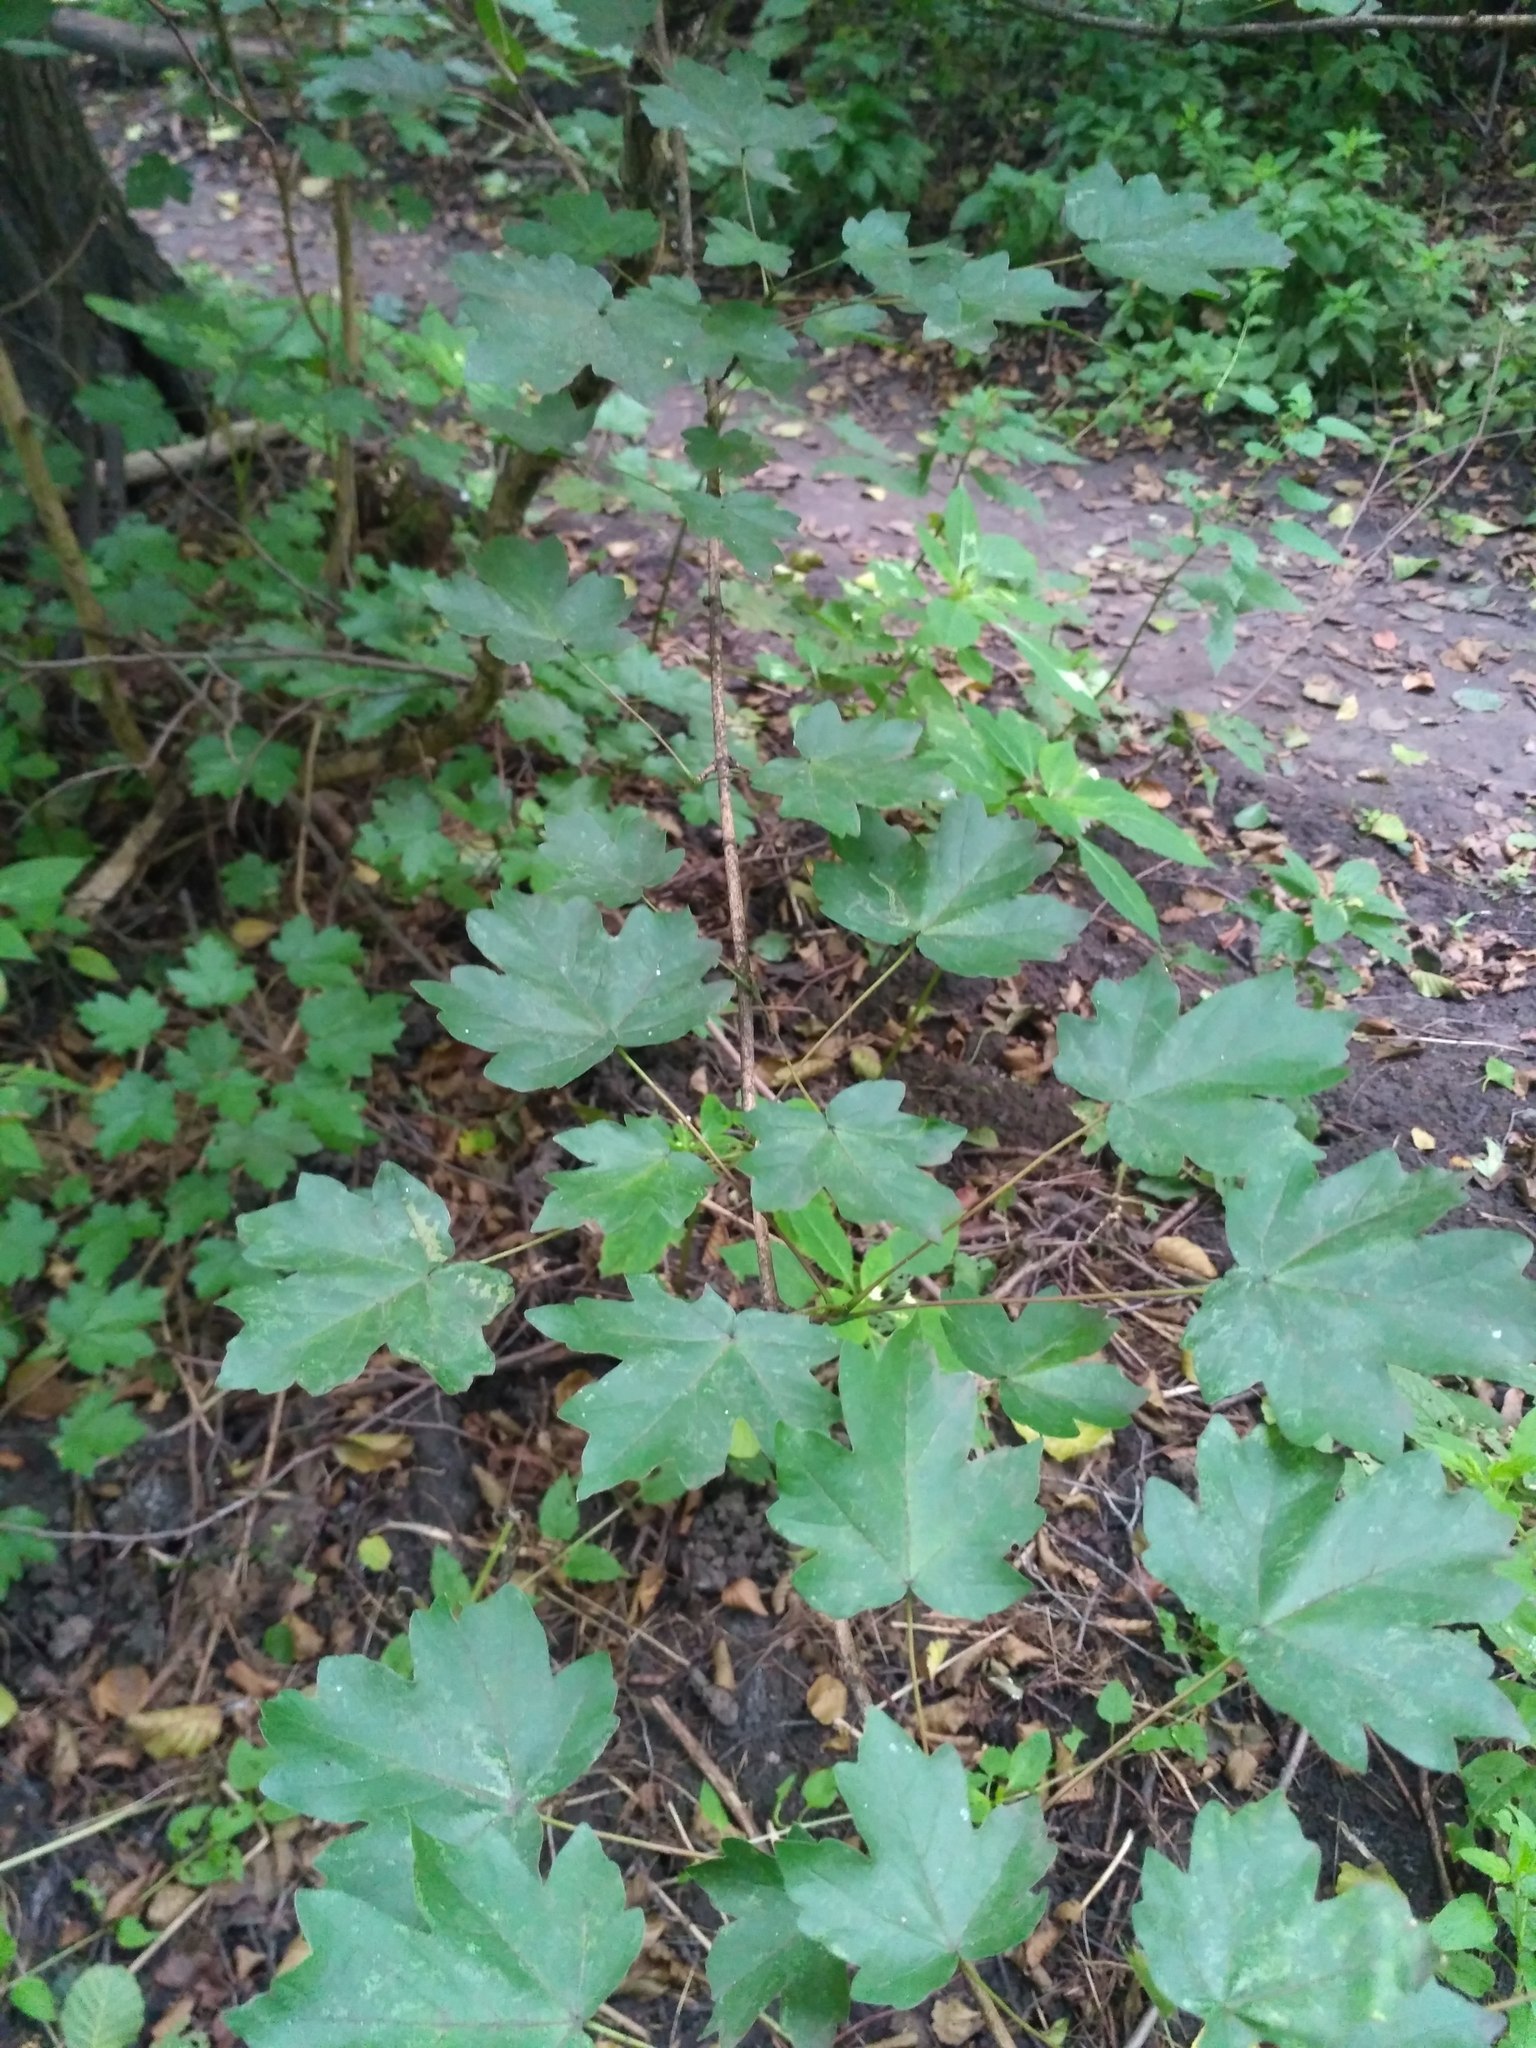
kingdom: Plantae
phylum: Tracheophyta
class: Magnoliopsida
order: Sapindales
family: Sapindaceae
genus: Acer
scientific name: Acer campestre
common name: Field maple
